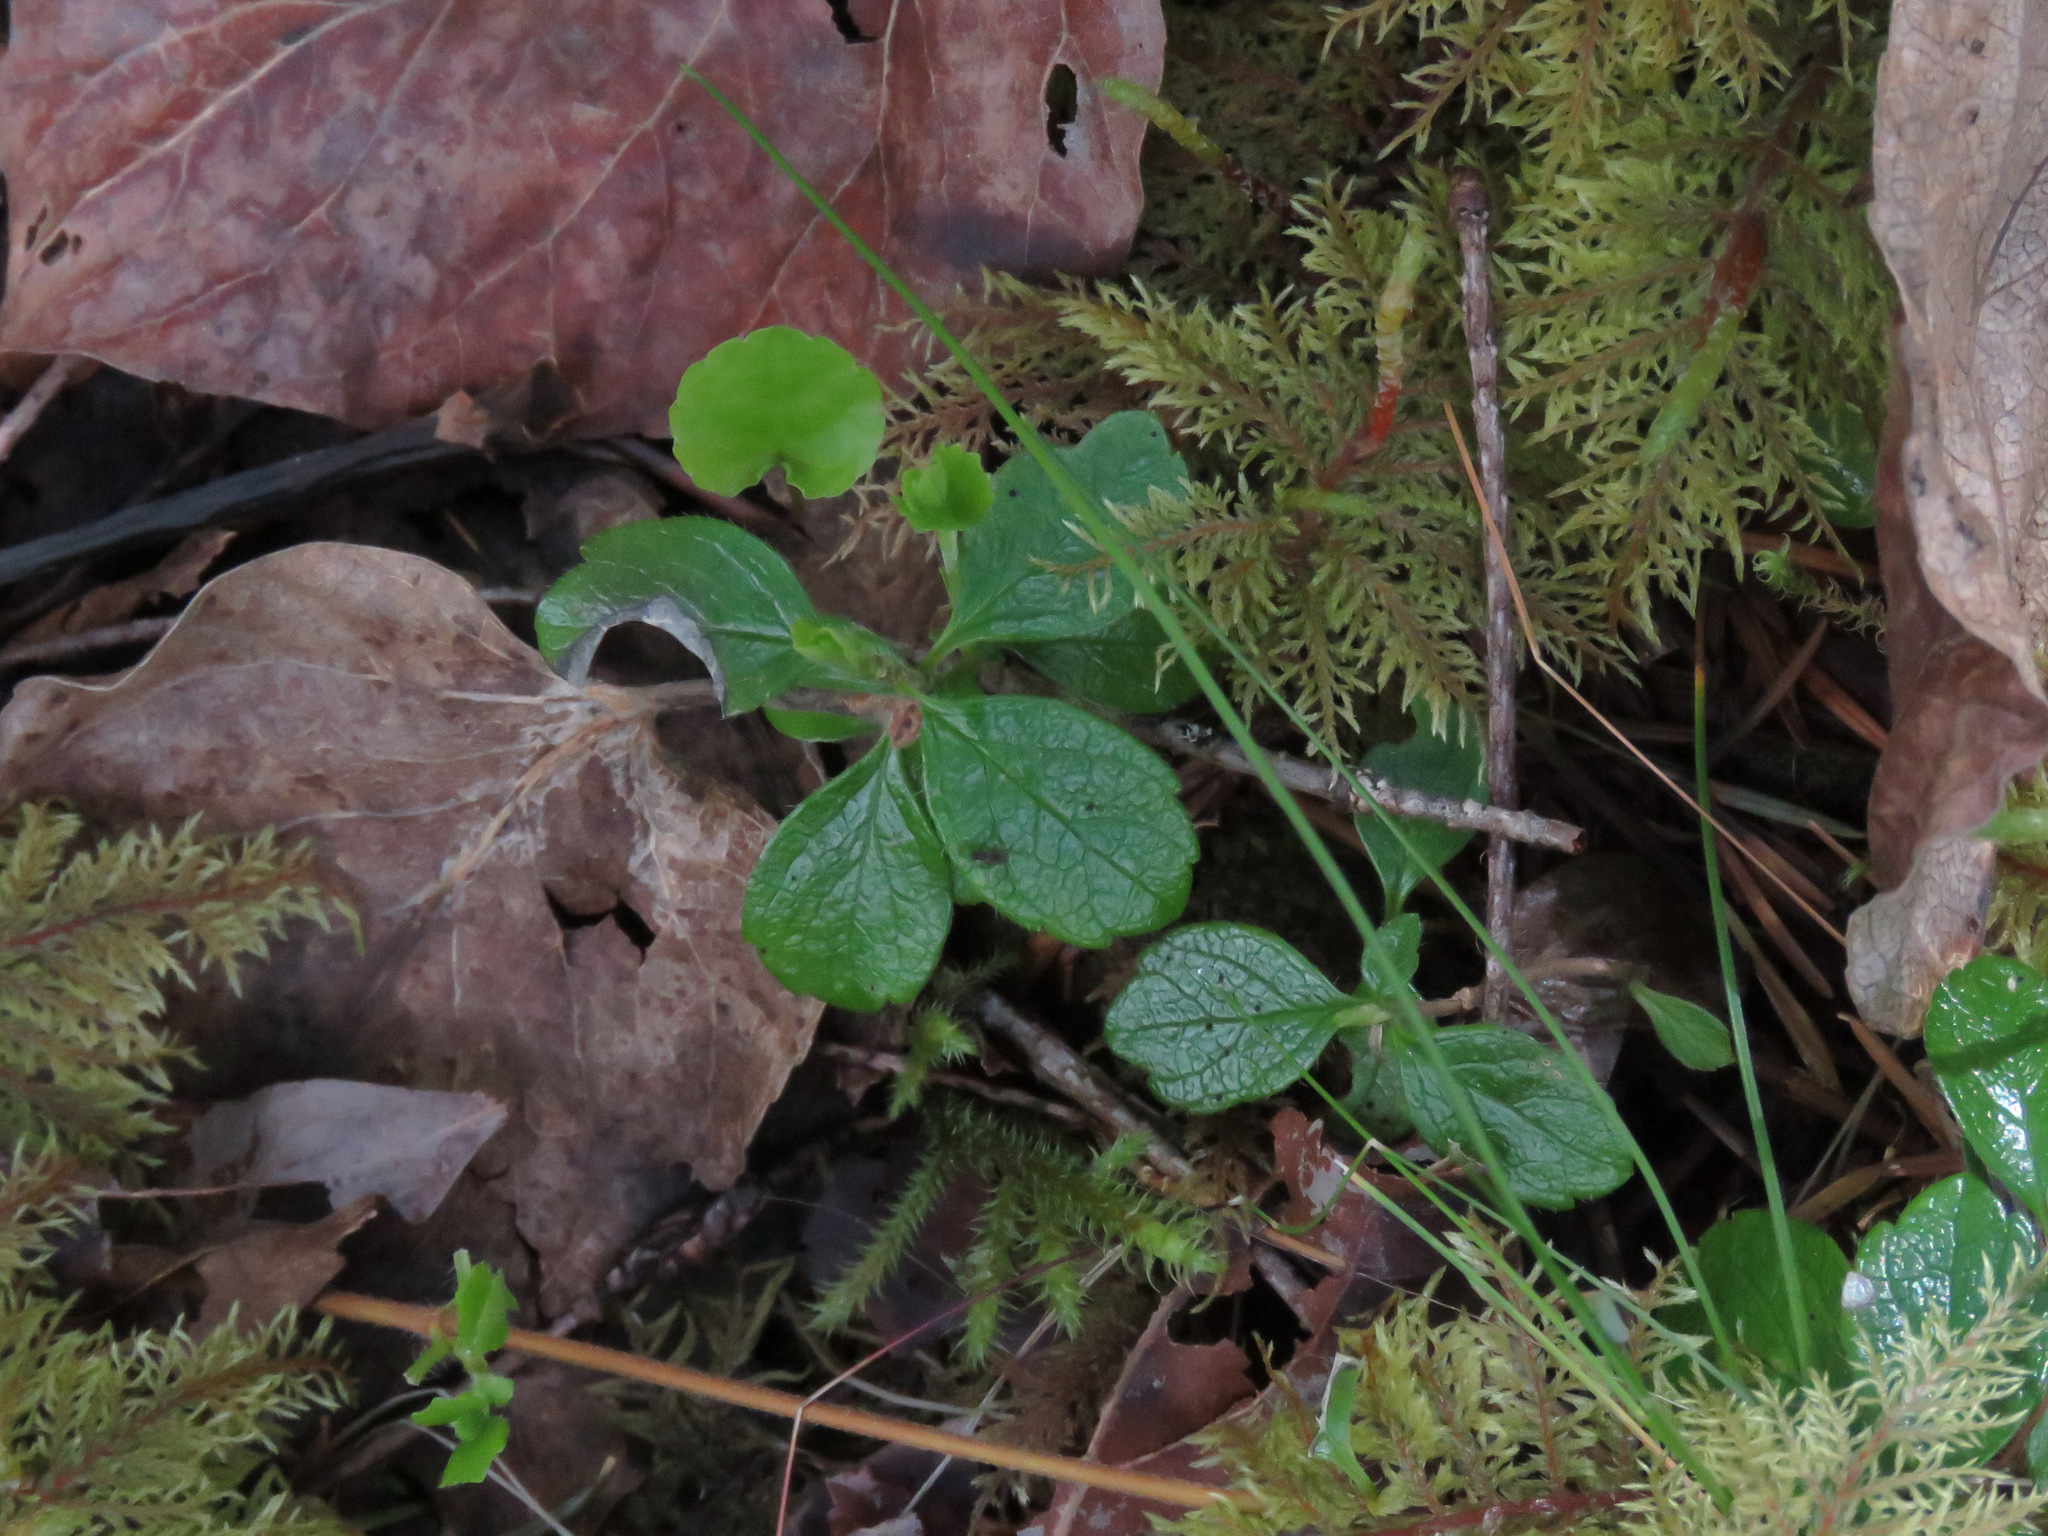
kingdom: Plantae
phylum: Tracheophyta
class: Magnoliopsida
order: Dipsacales
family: Caprifoliaceae
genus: Linnaea
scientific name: Linnaea borealis
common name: Twinflower
